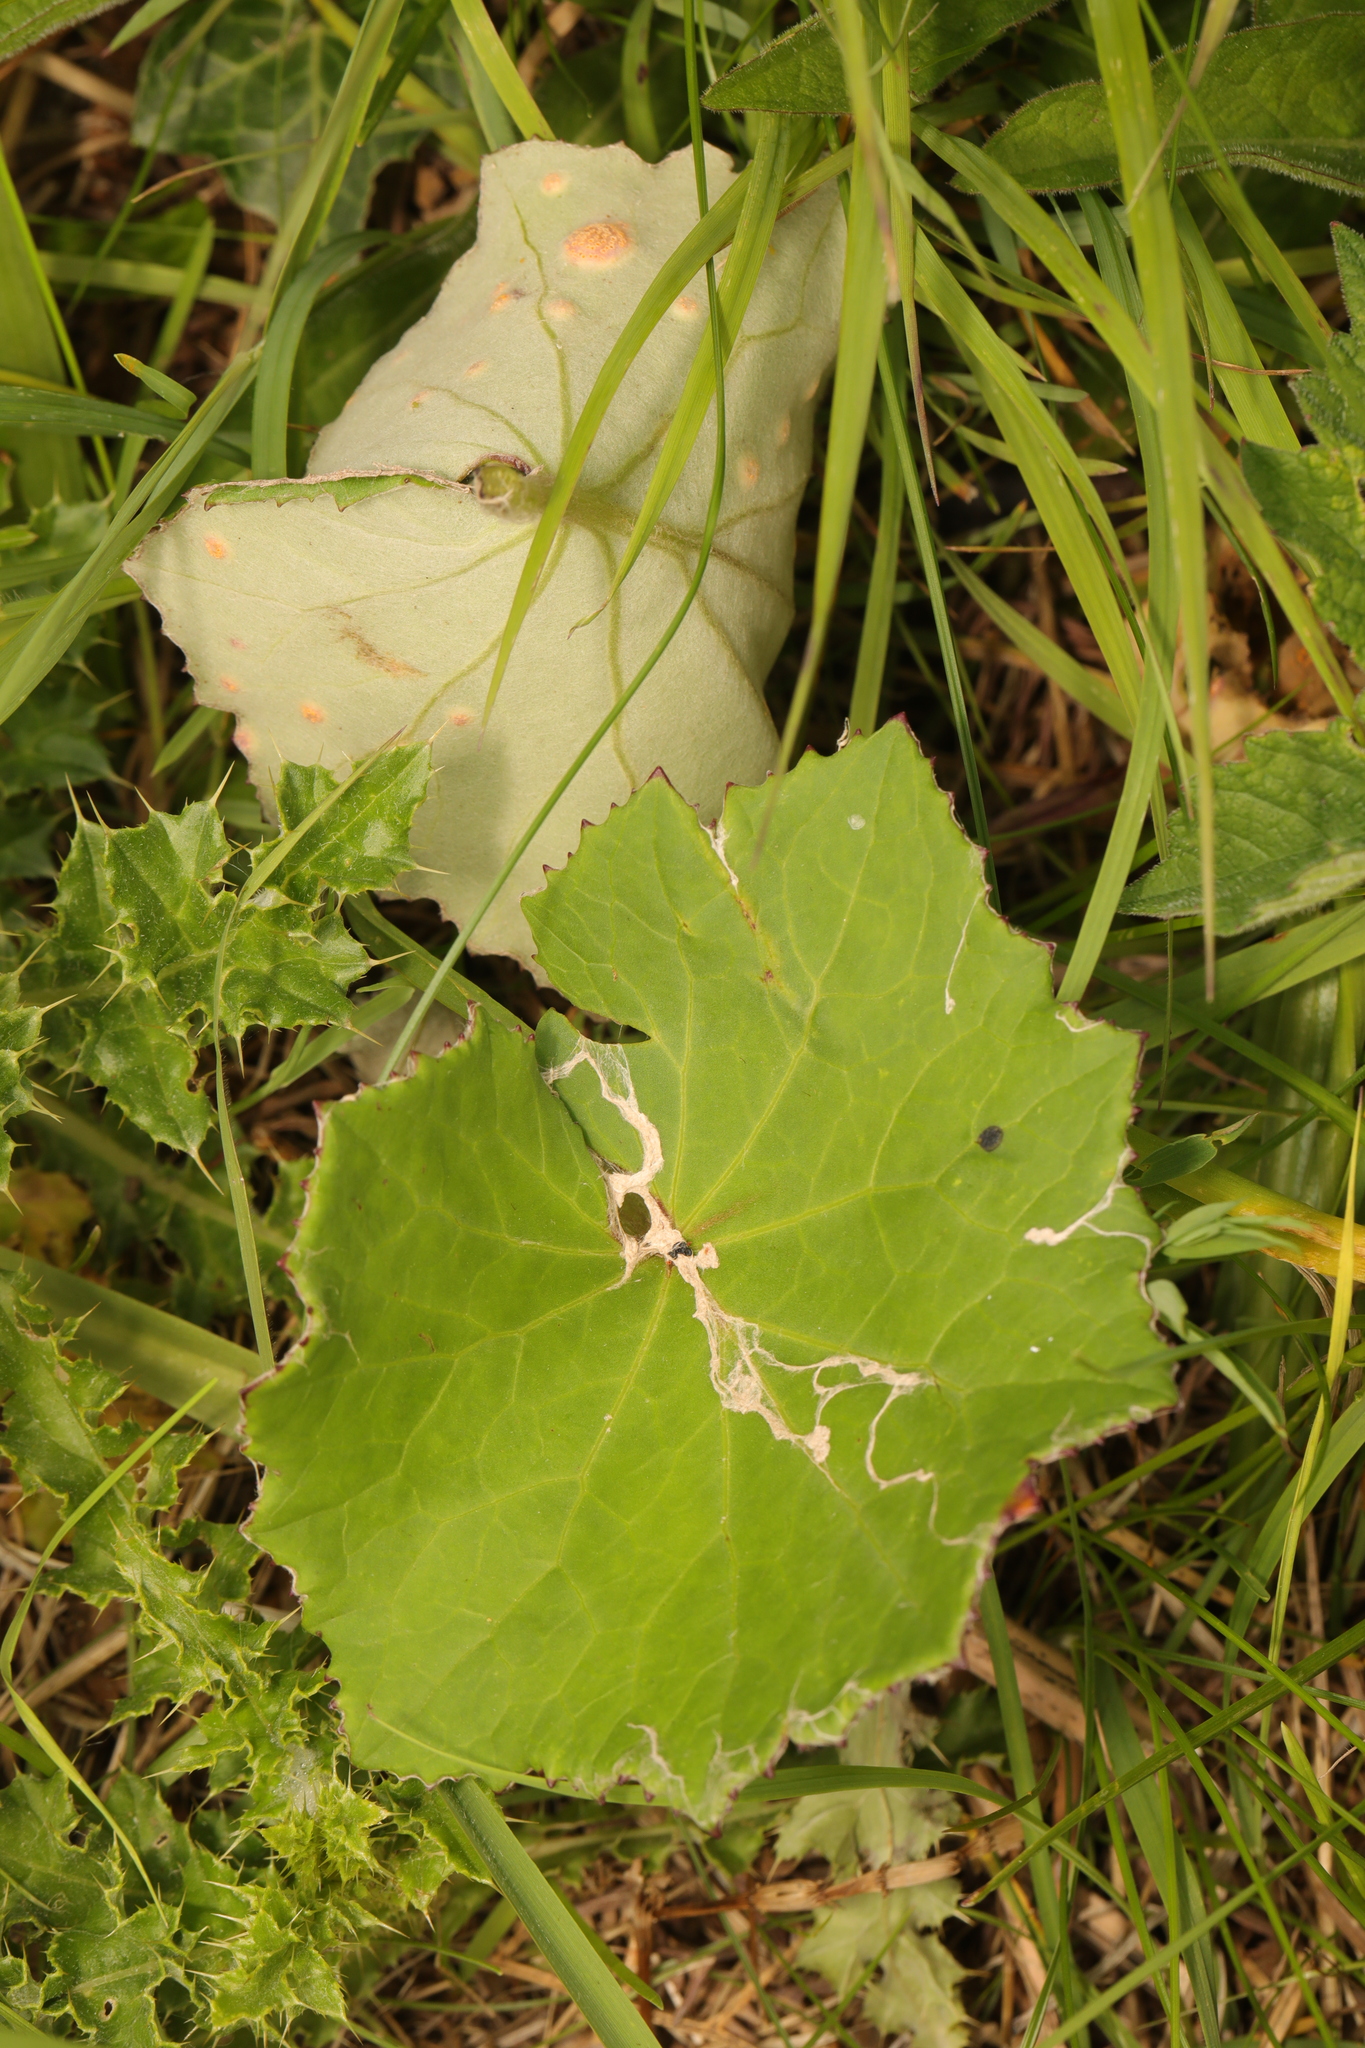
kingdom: Plantae
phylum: Tracheophyta
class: Magnoliopsida
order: Asterales
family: Asteraceae
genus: Tussilago
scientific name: Tussilago farfara
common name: Coltsfoot
